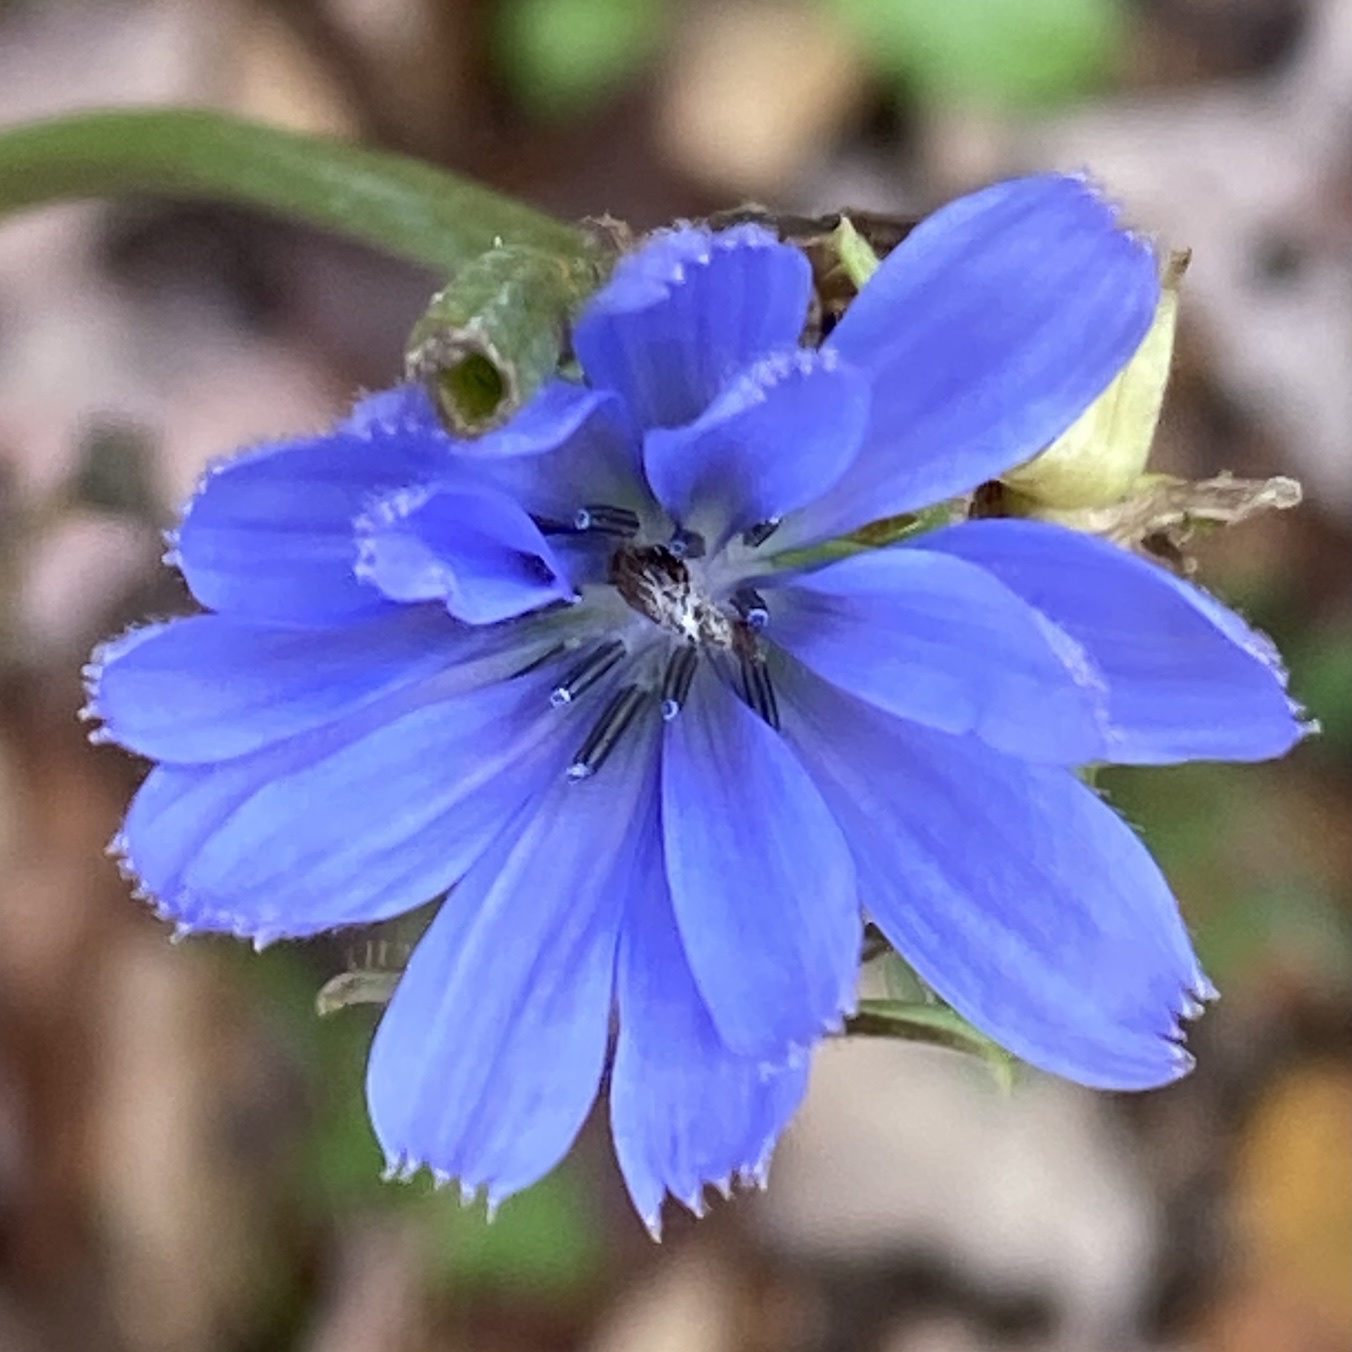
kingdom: Plantae
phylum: Tracheophyta
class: Magnoliopsida
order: Asterales
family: Asteraceae
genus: Cichorium
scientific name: Cichorium intybus
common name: Chicory
